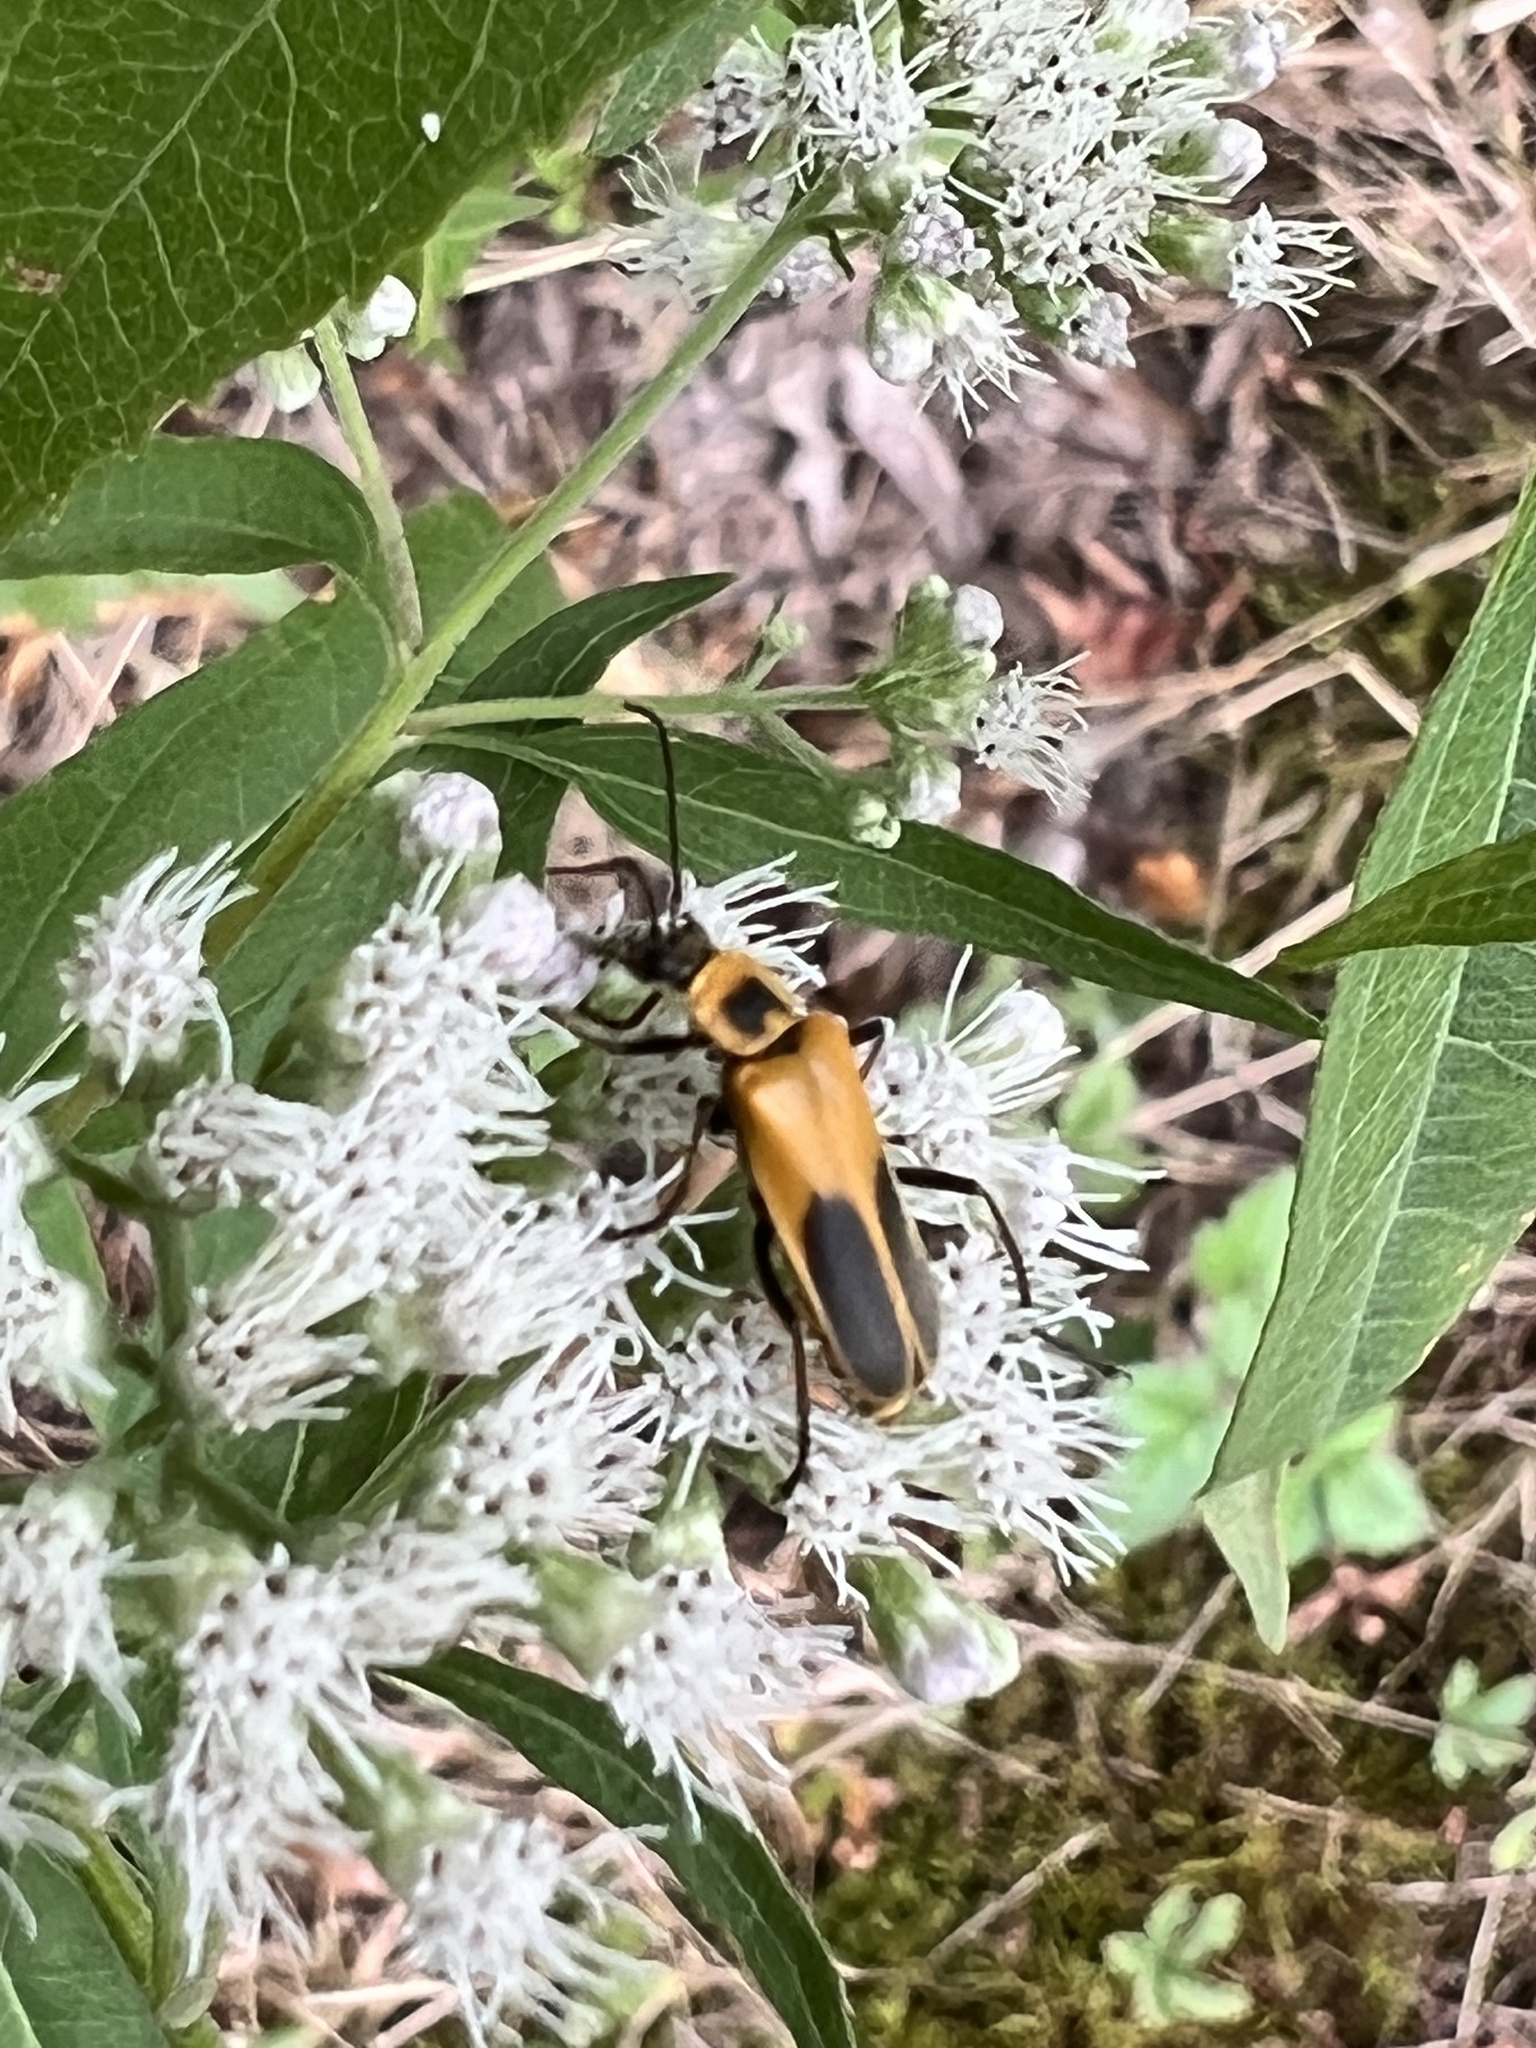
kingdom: Animalia
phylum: Arthropoda
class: Insecta
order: Coleoptera
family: Cantharidae
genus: Chauliognathus
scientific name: Chauliognathus pensylvanicus
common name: Goldenrod soldier beetle
